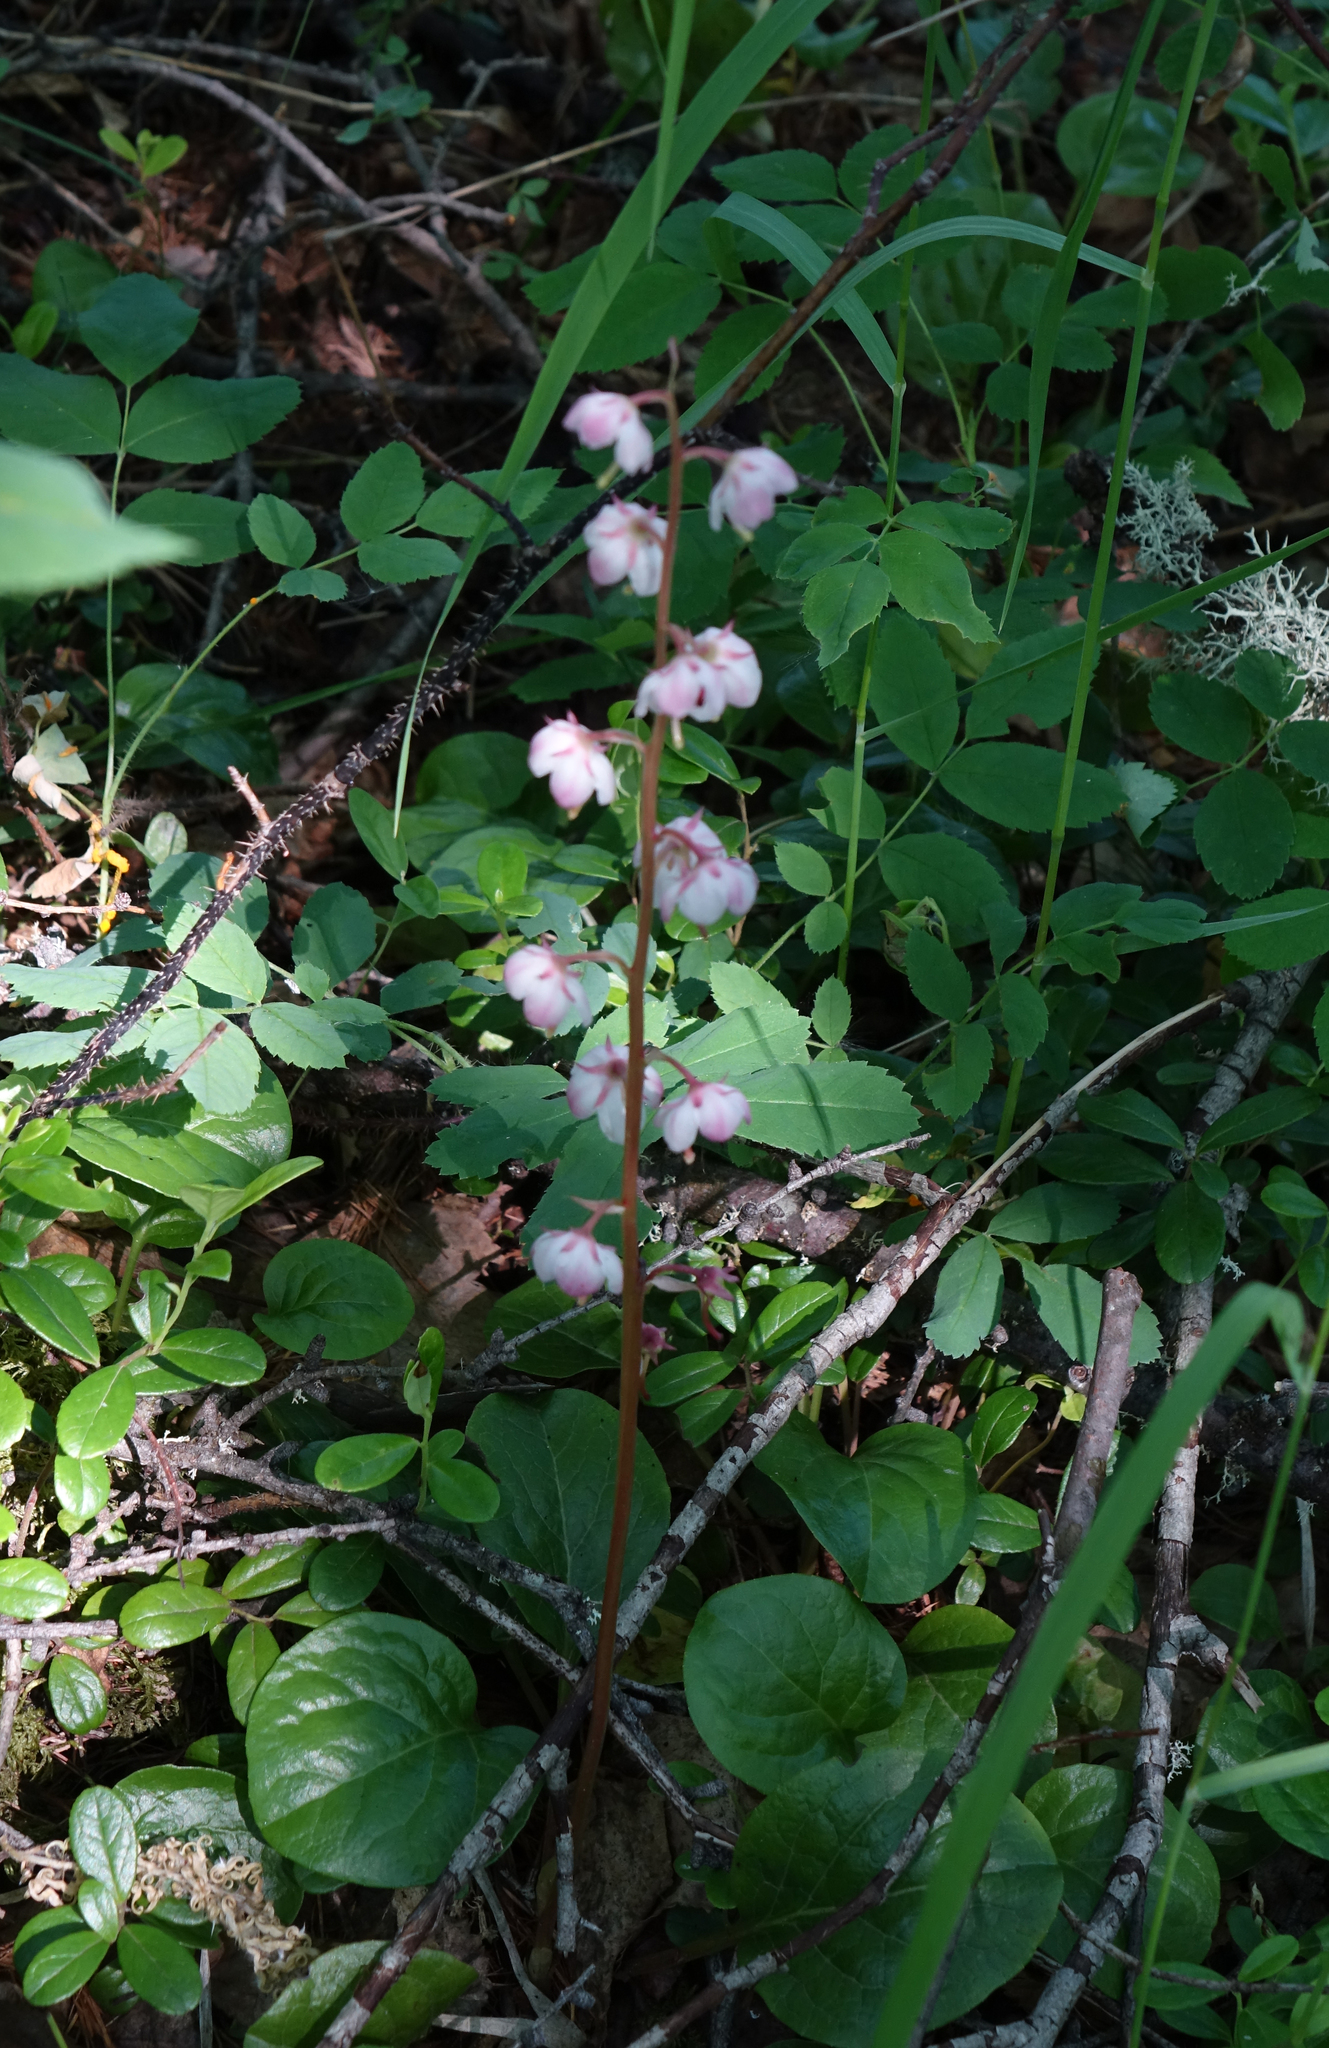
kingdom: Plantae
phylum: Tracheophyta
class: Magnoliopsida
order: Ericales
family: Ericaceae
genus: Pyrola
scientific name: Pyrola asarifolia
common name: Bog wintergreen
